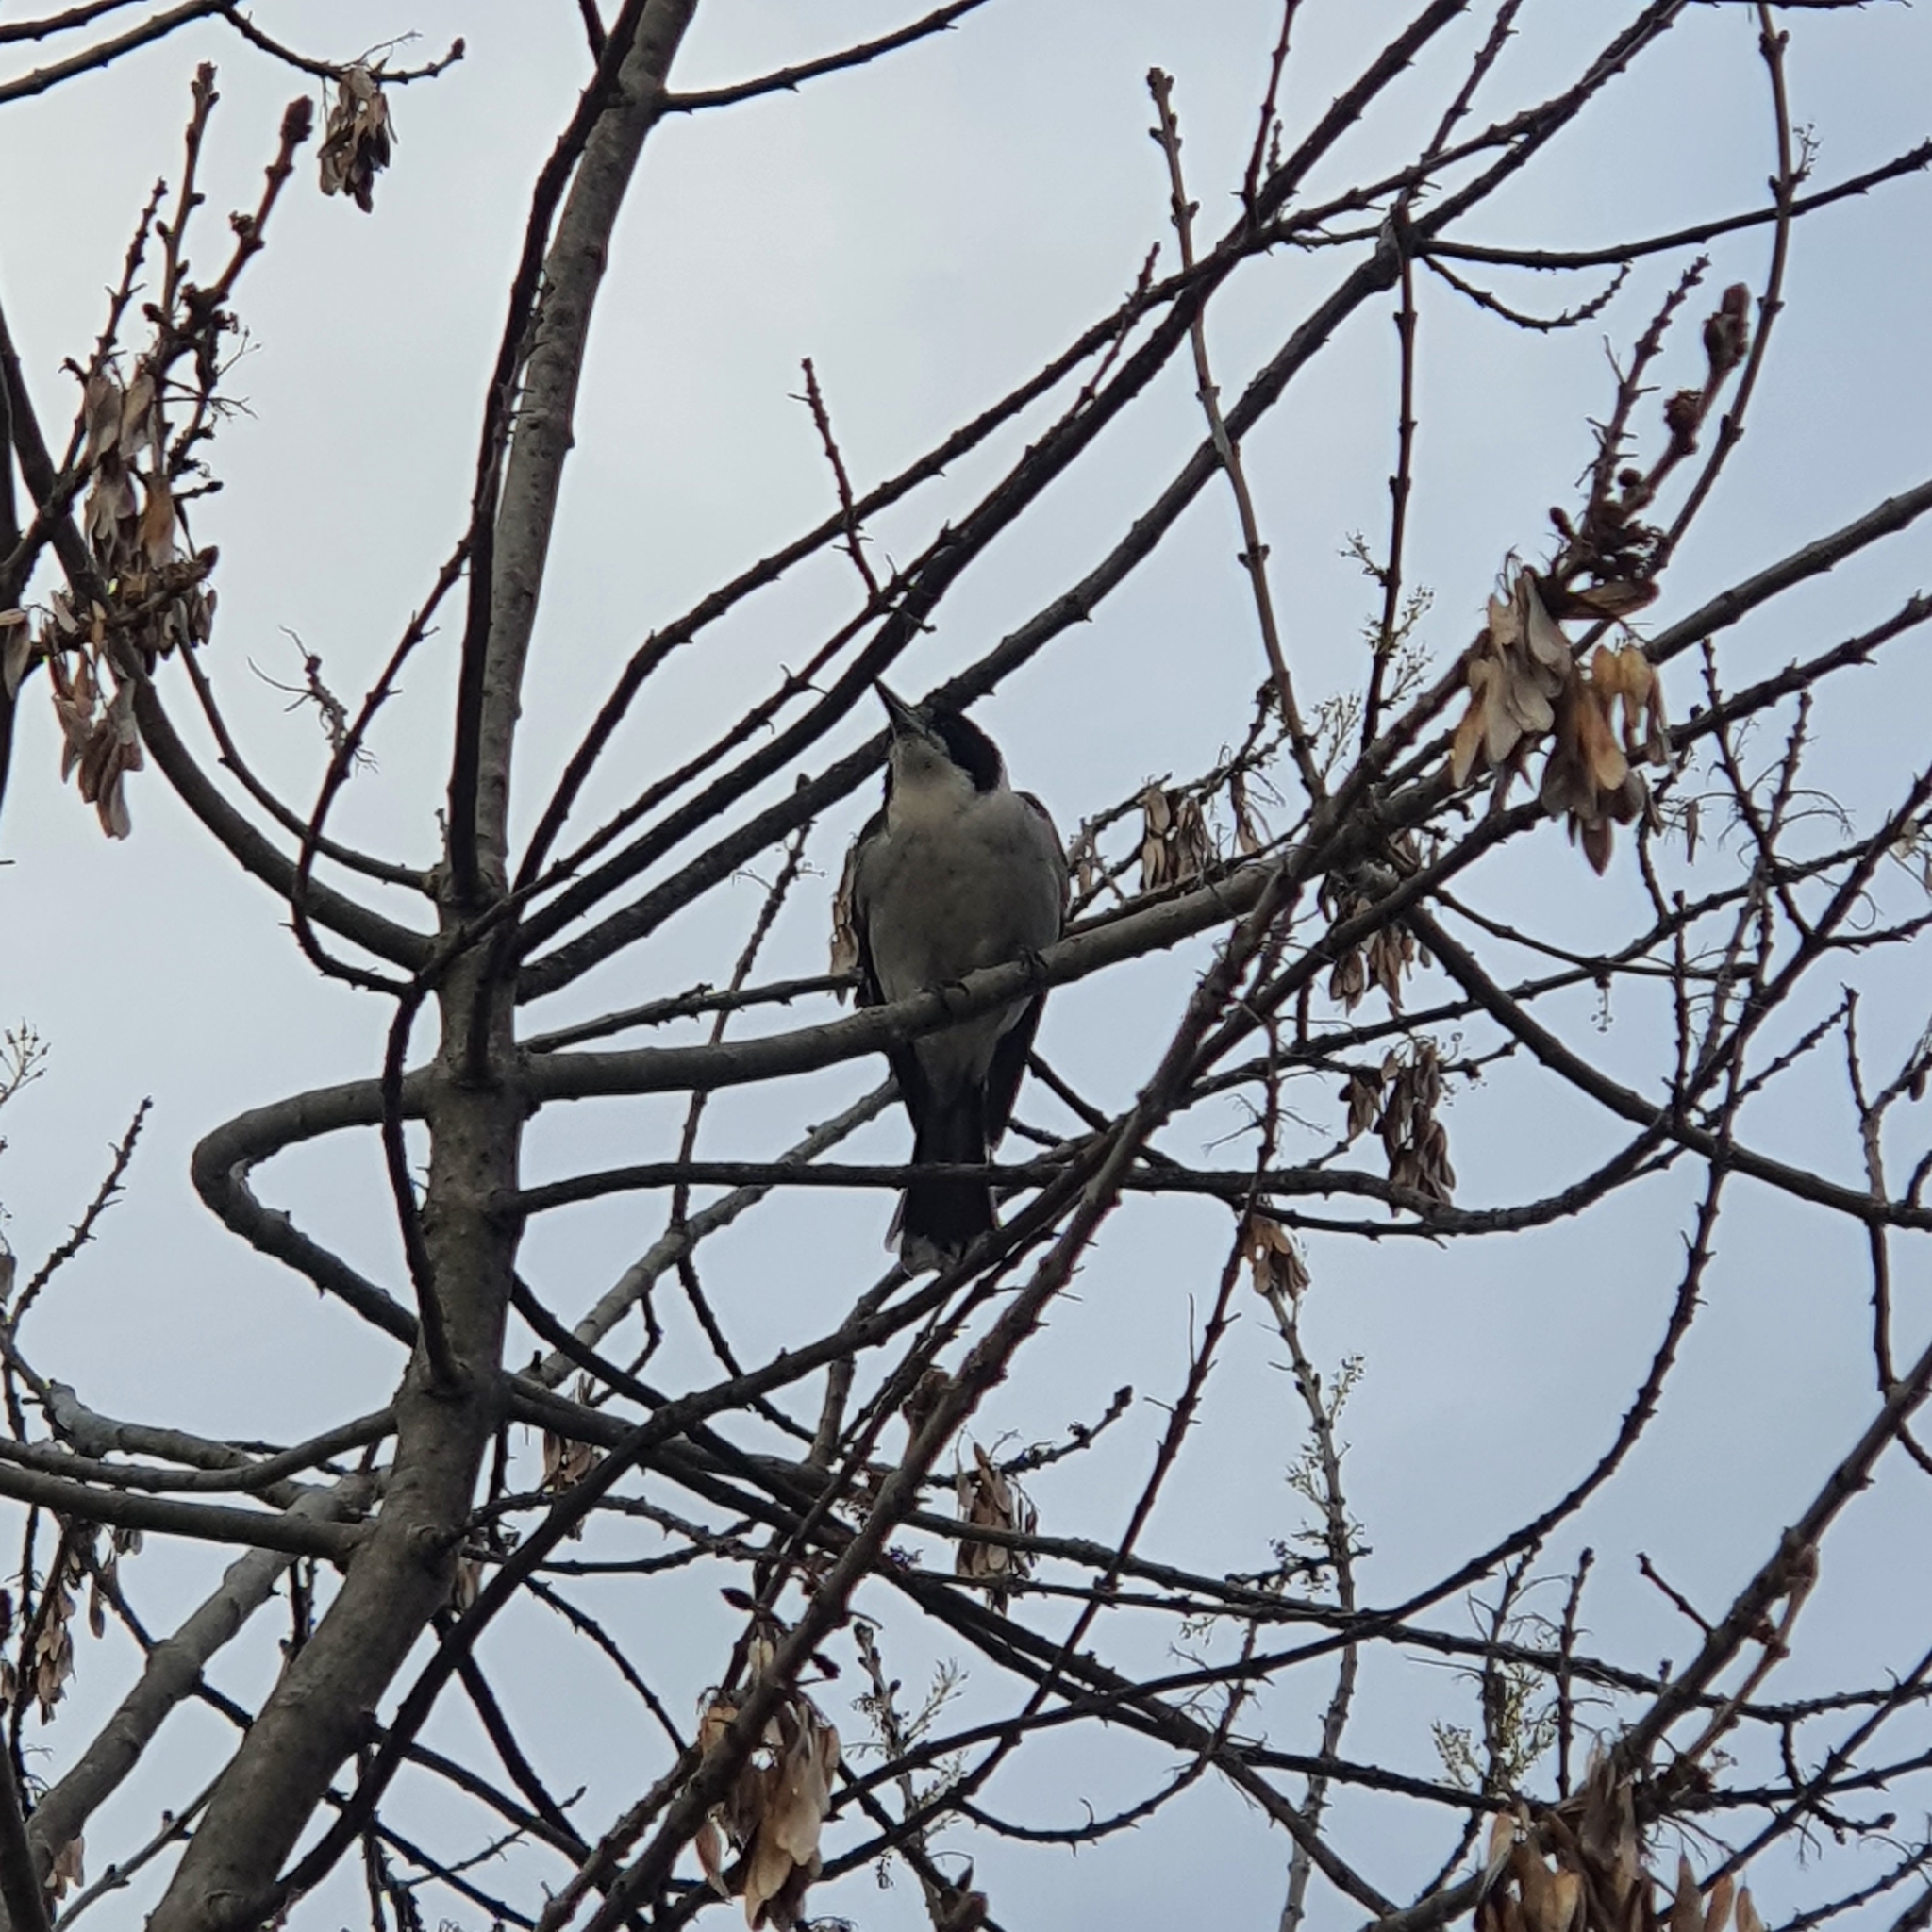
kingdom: Animalia
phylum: Chordata
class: Aves
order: Passeriformes
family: Cracticidae
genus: Cracticus
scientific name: Cracticus torquatus
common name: Grey butcherbird
